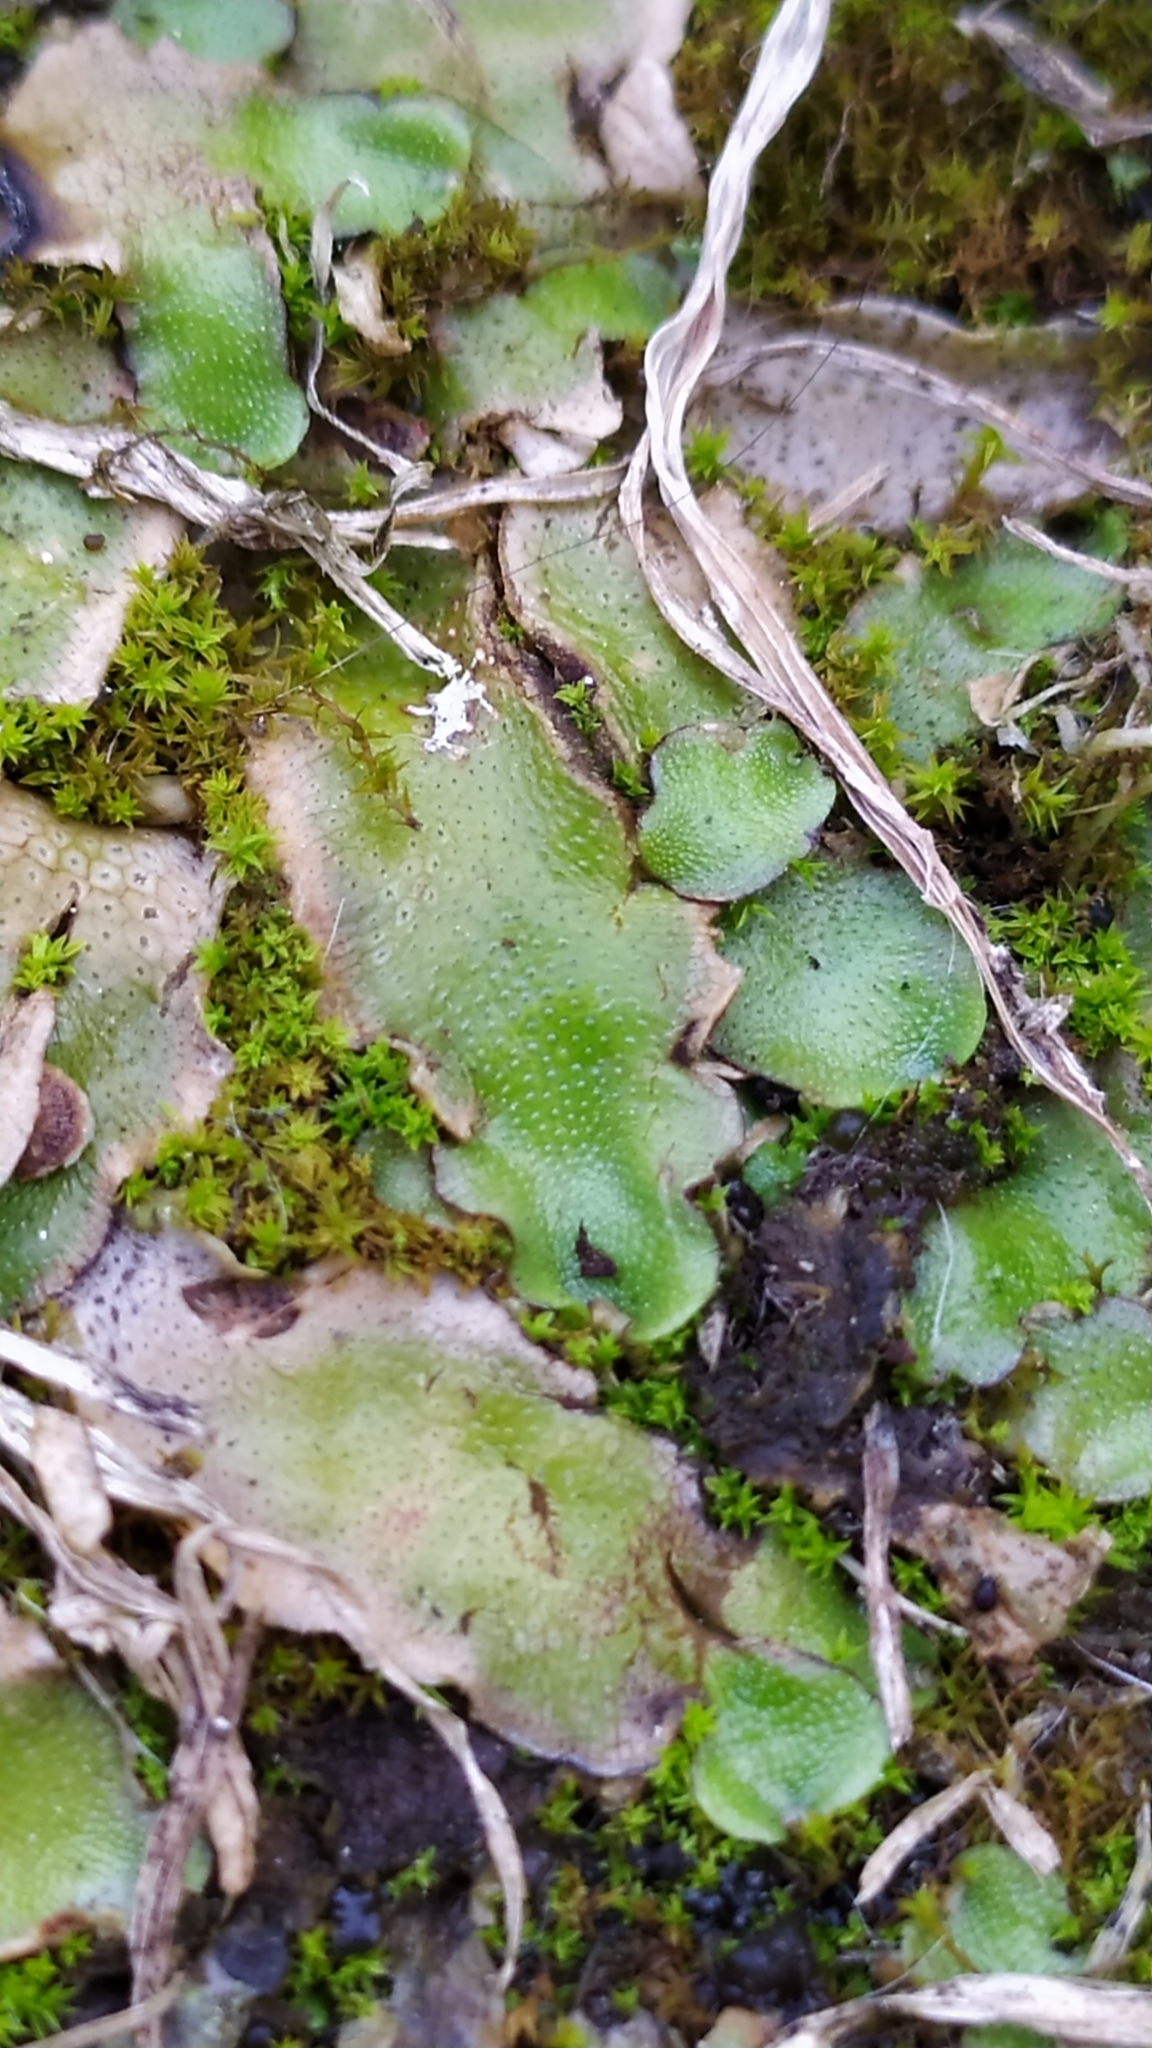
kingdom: Plantae
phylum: Marchantiophyta
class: Marchantiopsida
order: Lunulariales
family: Lunulariaceae
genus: Lunularia
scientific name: Lunularia cruciata
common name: Crescent-cup liverwort
